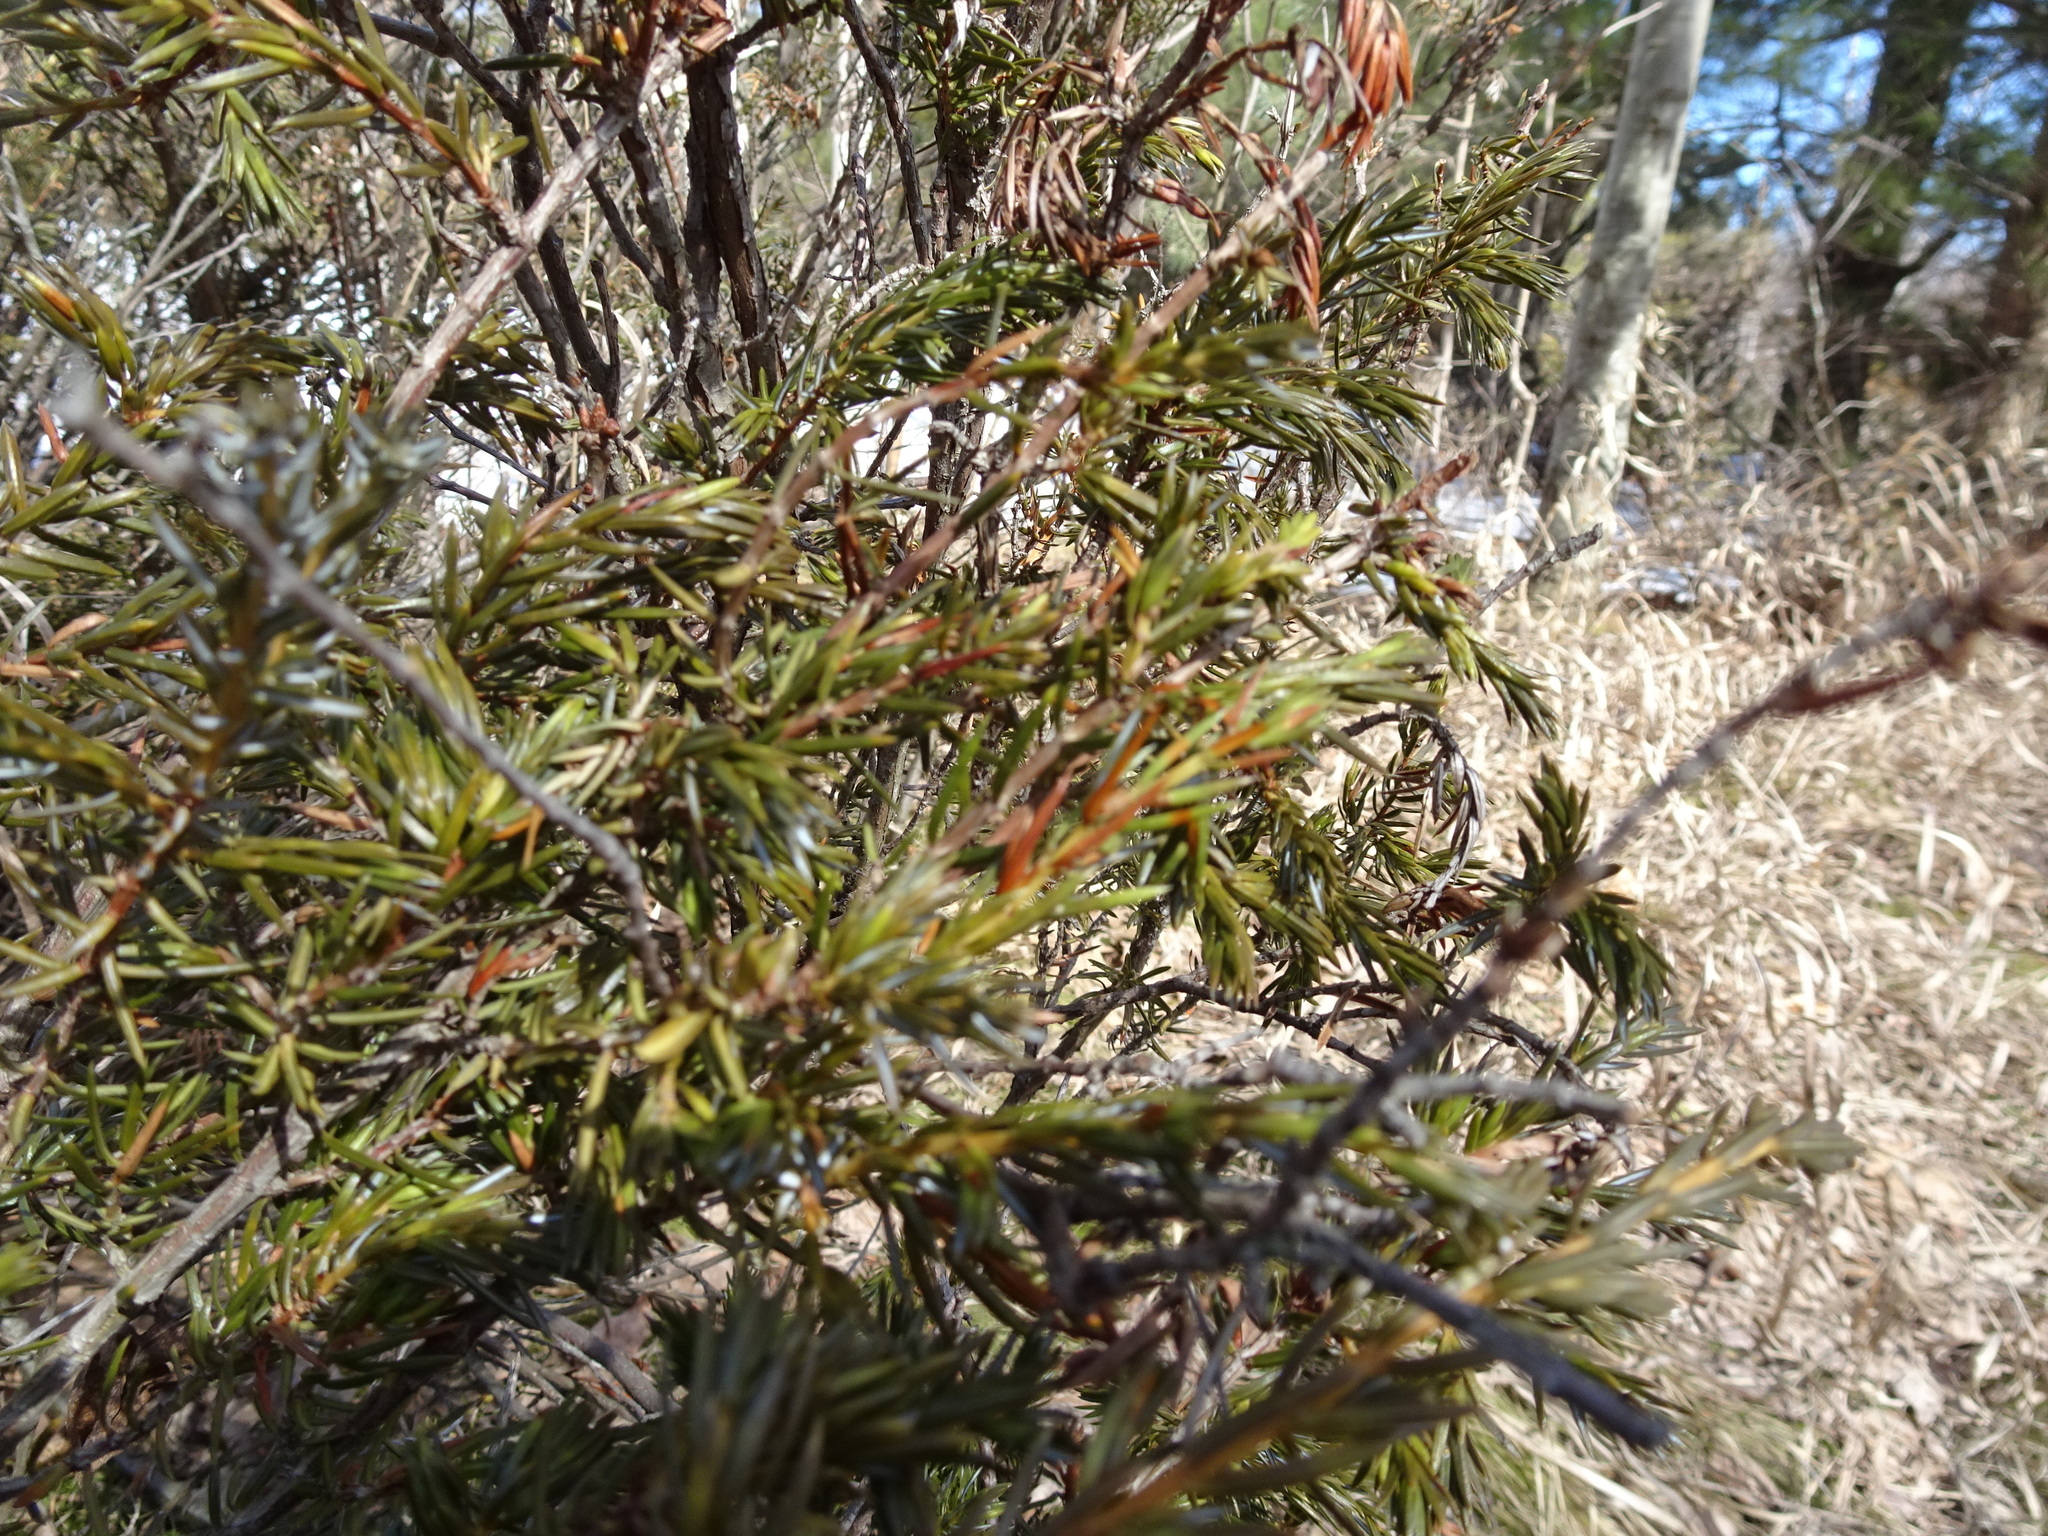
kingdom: Plantae
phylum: Tracheophyta
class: Pinopsida
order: Pinales
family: Cupressaceae
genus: Juniperus
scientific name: Juniperus communis
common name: Common juniper
